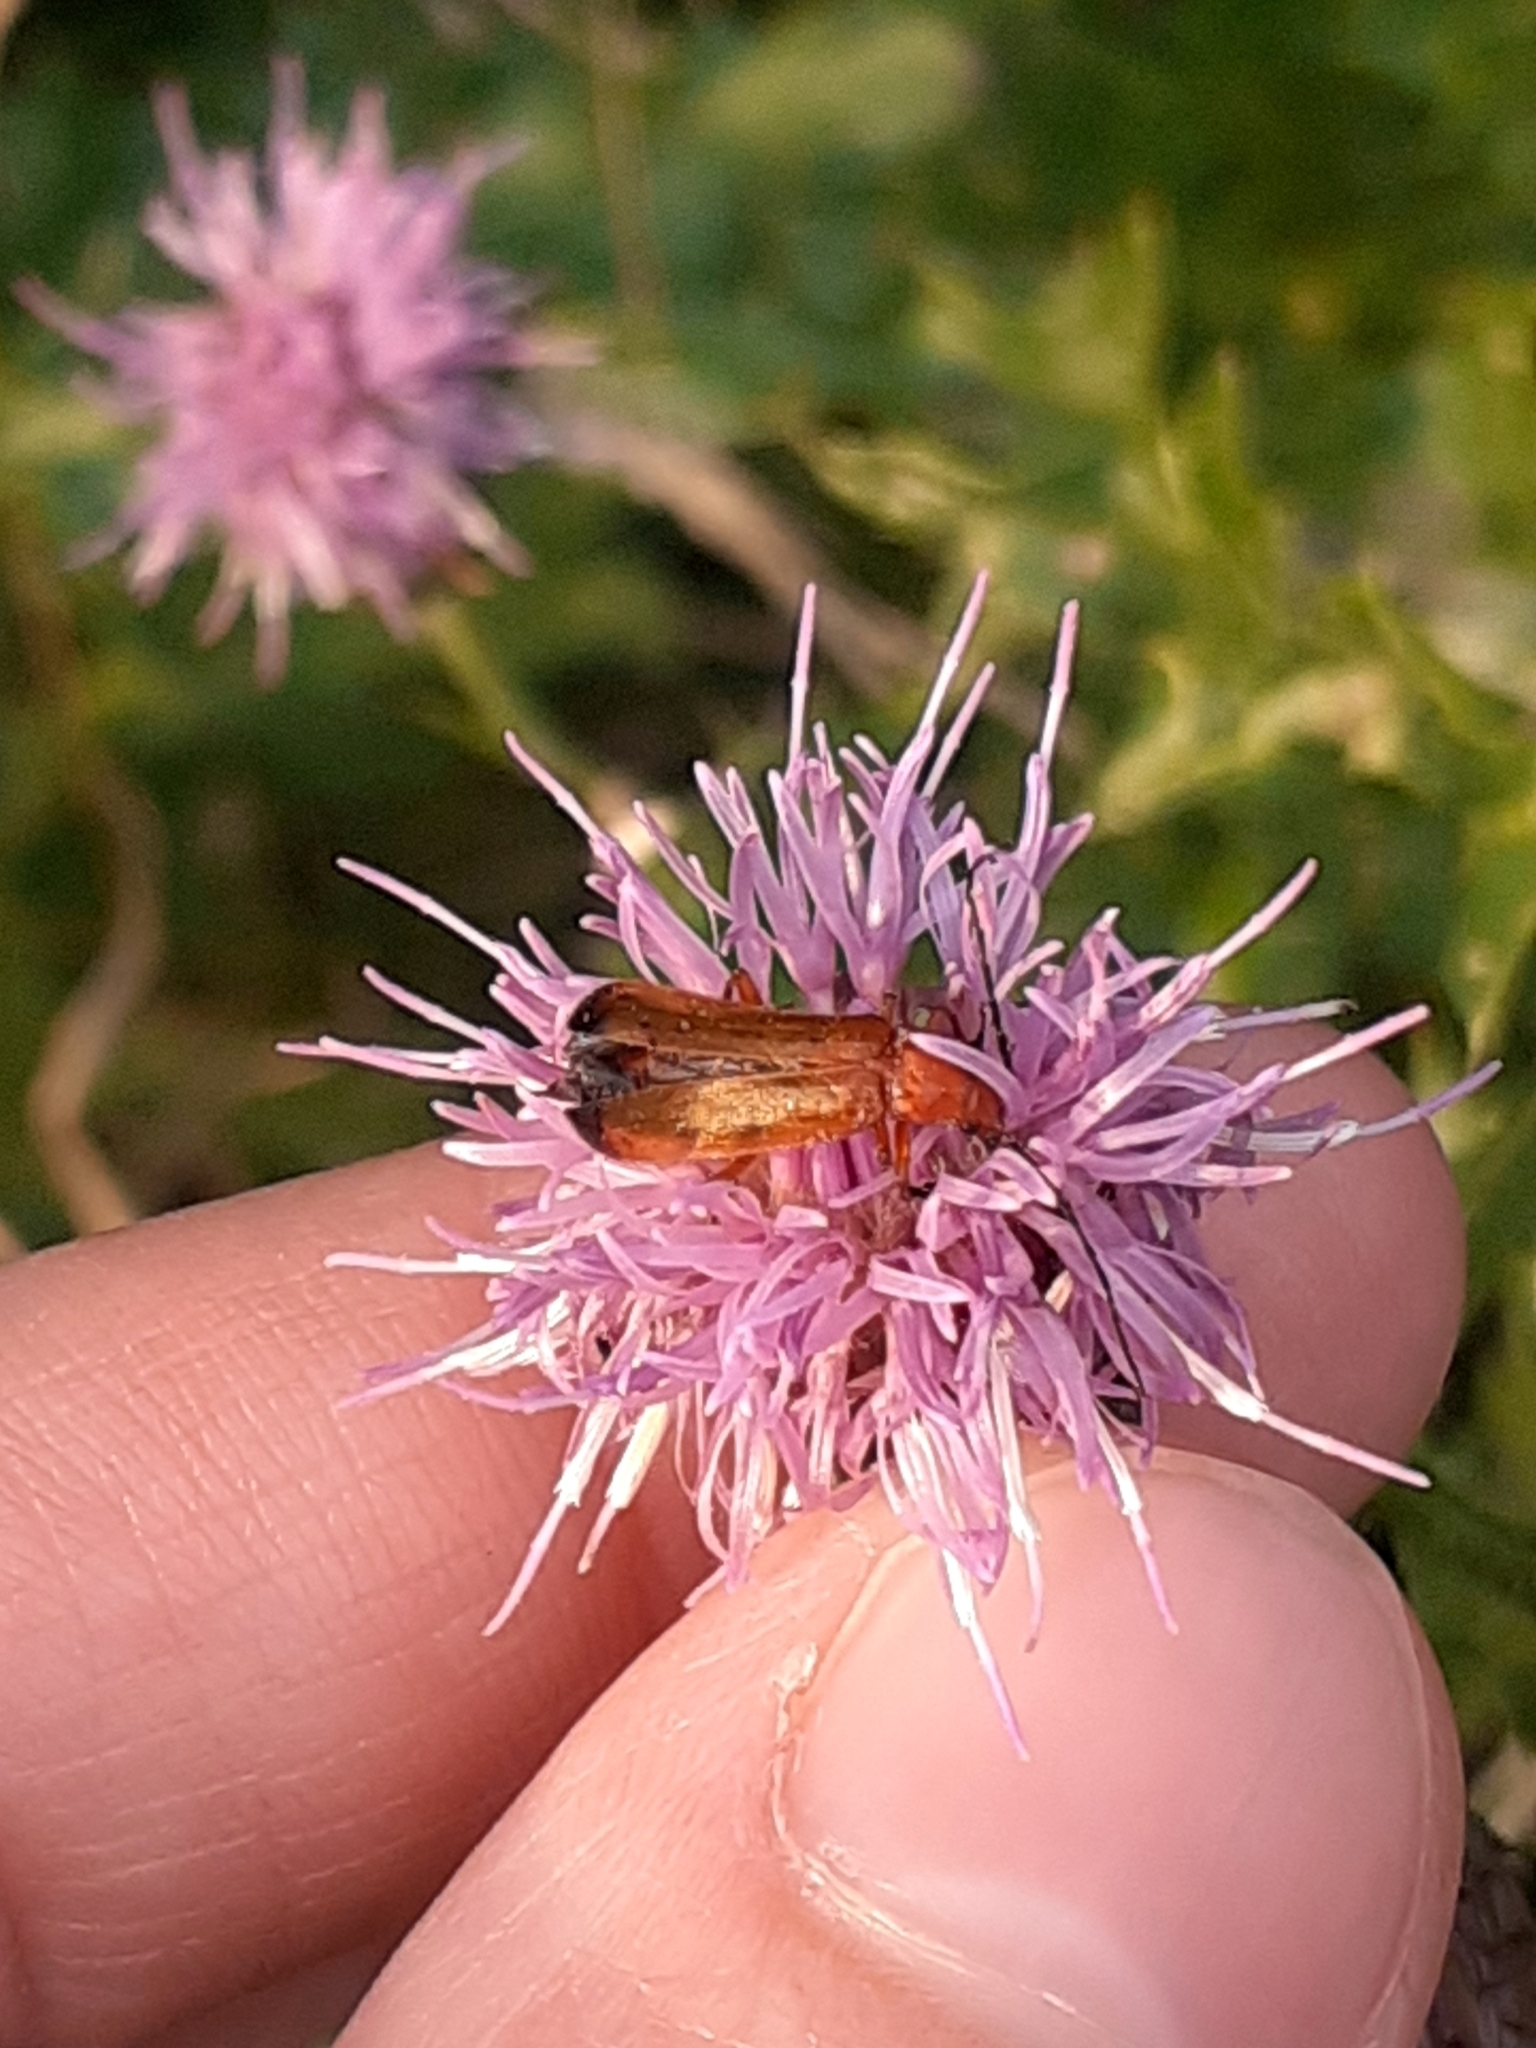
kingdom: Animalia
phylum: Arthropoda
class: Insecta
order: Coleoptera
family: Cantharidae
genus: Rhagonycha
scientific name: Rhagonycha fulva
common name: Common red soldier beetle
